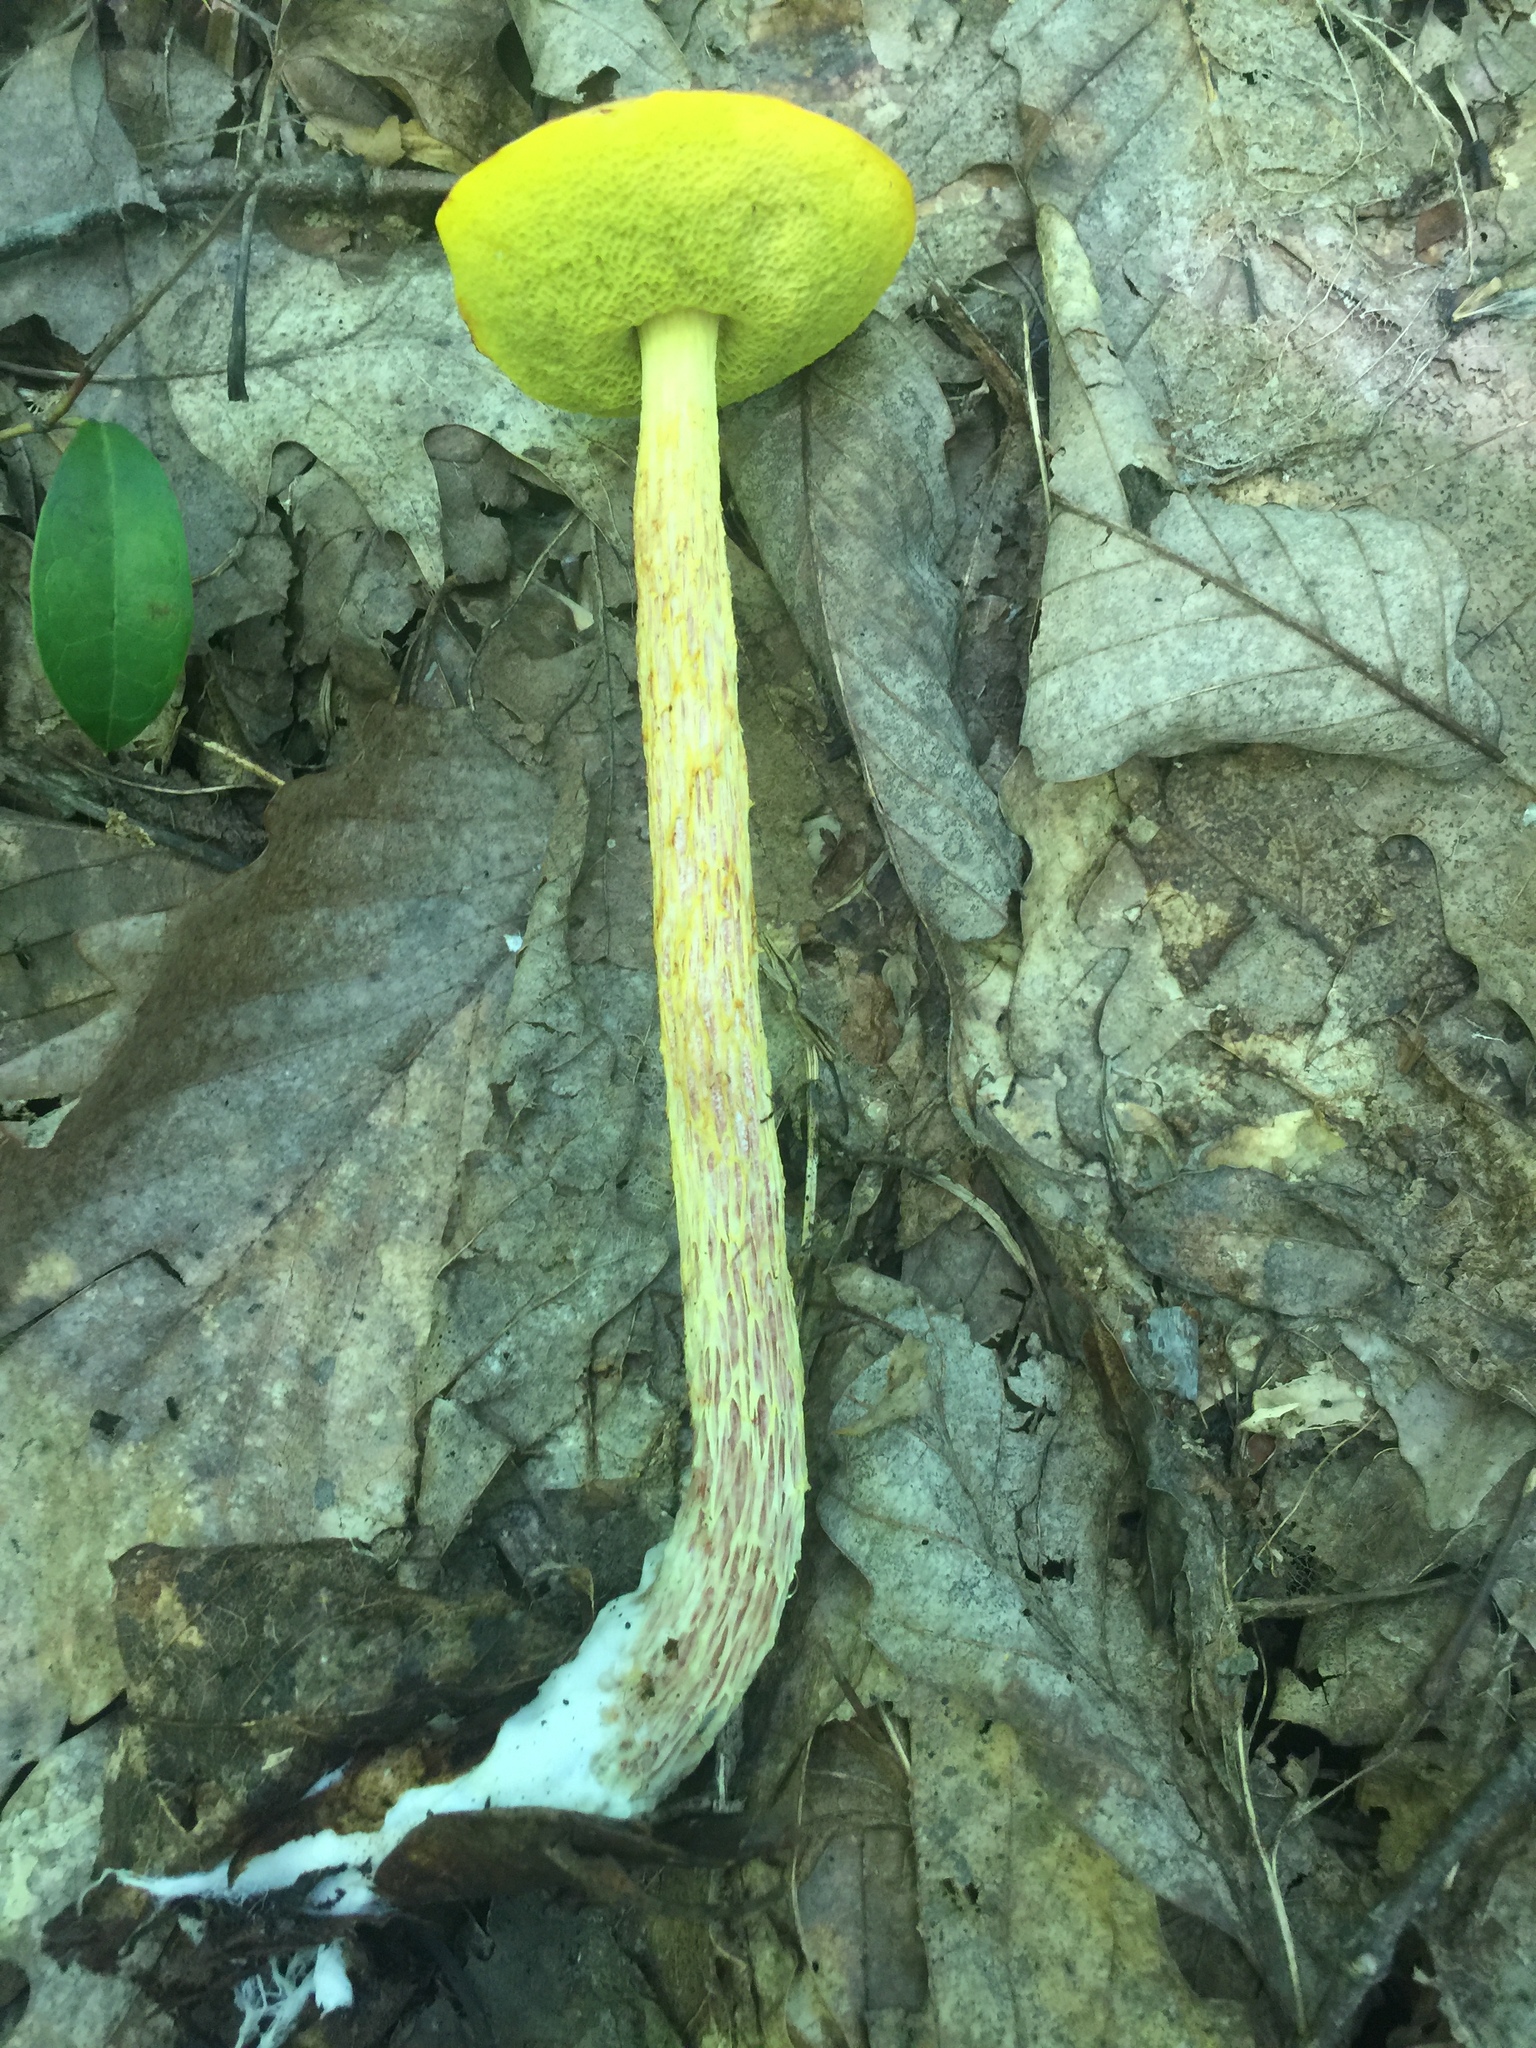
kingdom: Fungi
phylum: Basidiomycota
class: Agaricomycetes
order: Boletales
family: Boletaceae
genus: Aureoboletus
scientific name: Aureoboletus betula
